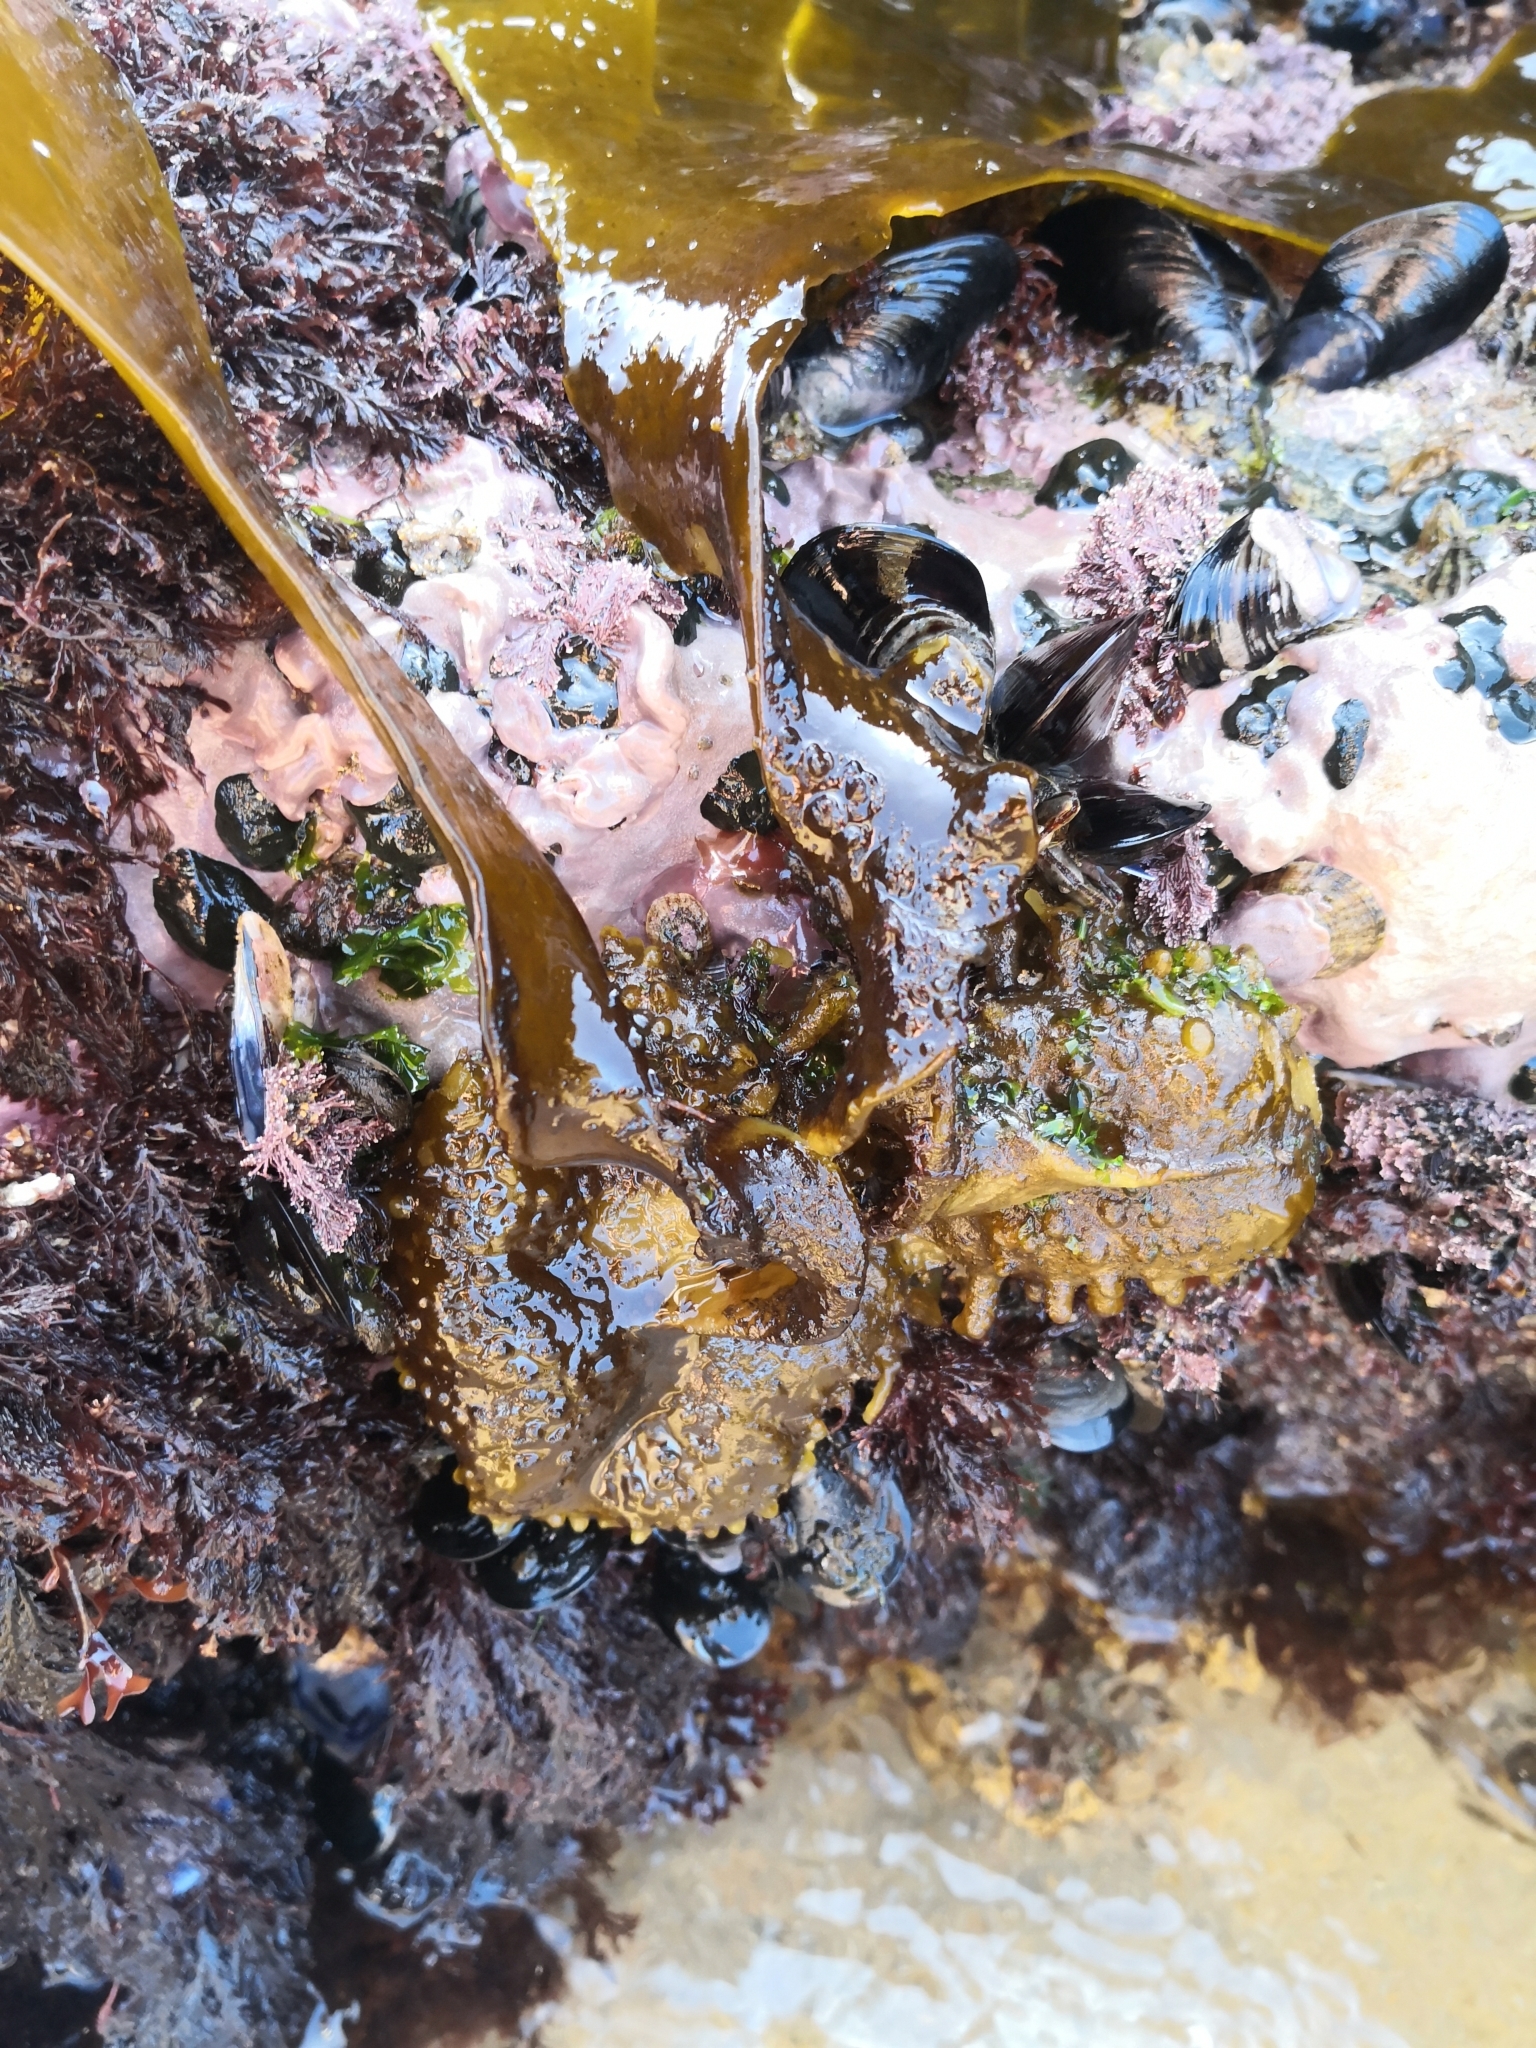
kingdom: Chromista
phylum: Ochrophyta
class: Phaeophyceae
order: Tilopteridales
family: Phyllariaceae
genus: Saccorhiza
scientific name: Saccorhiza polyschides
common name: Furbelows
